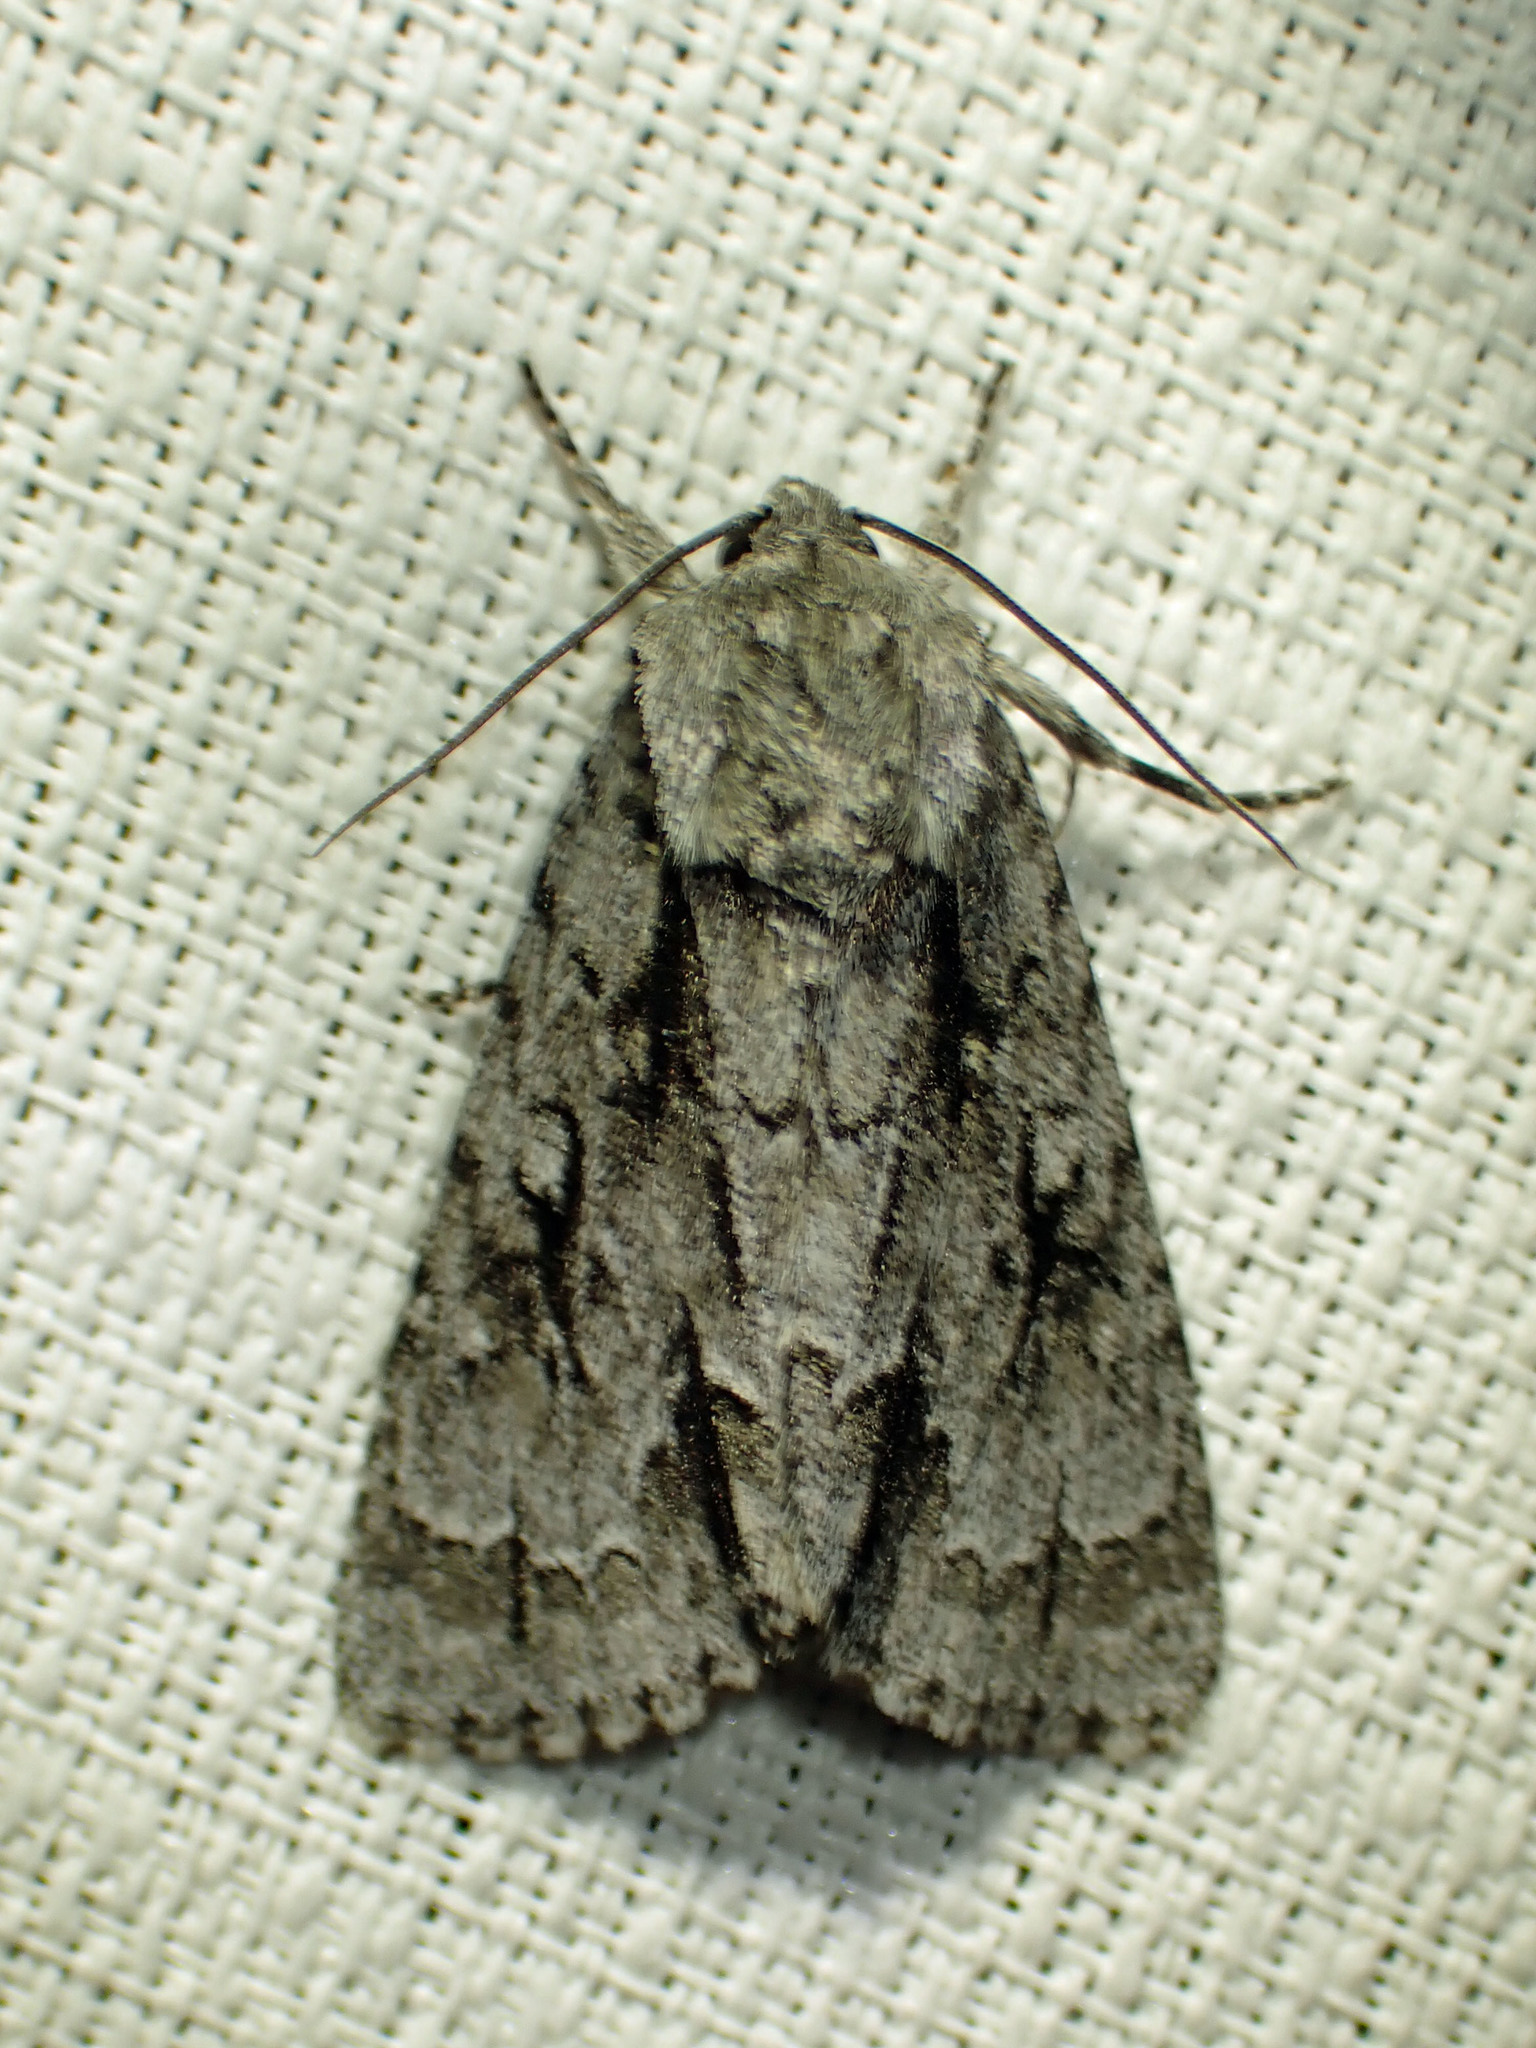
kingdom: Animalia
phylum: Arthropoda
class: Insecta
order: Lepidoptera
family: Noctuidae
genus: Acronicta
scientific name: Acronicta hasta
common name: Cherry dagger
